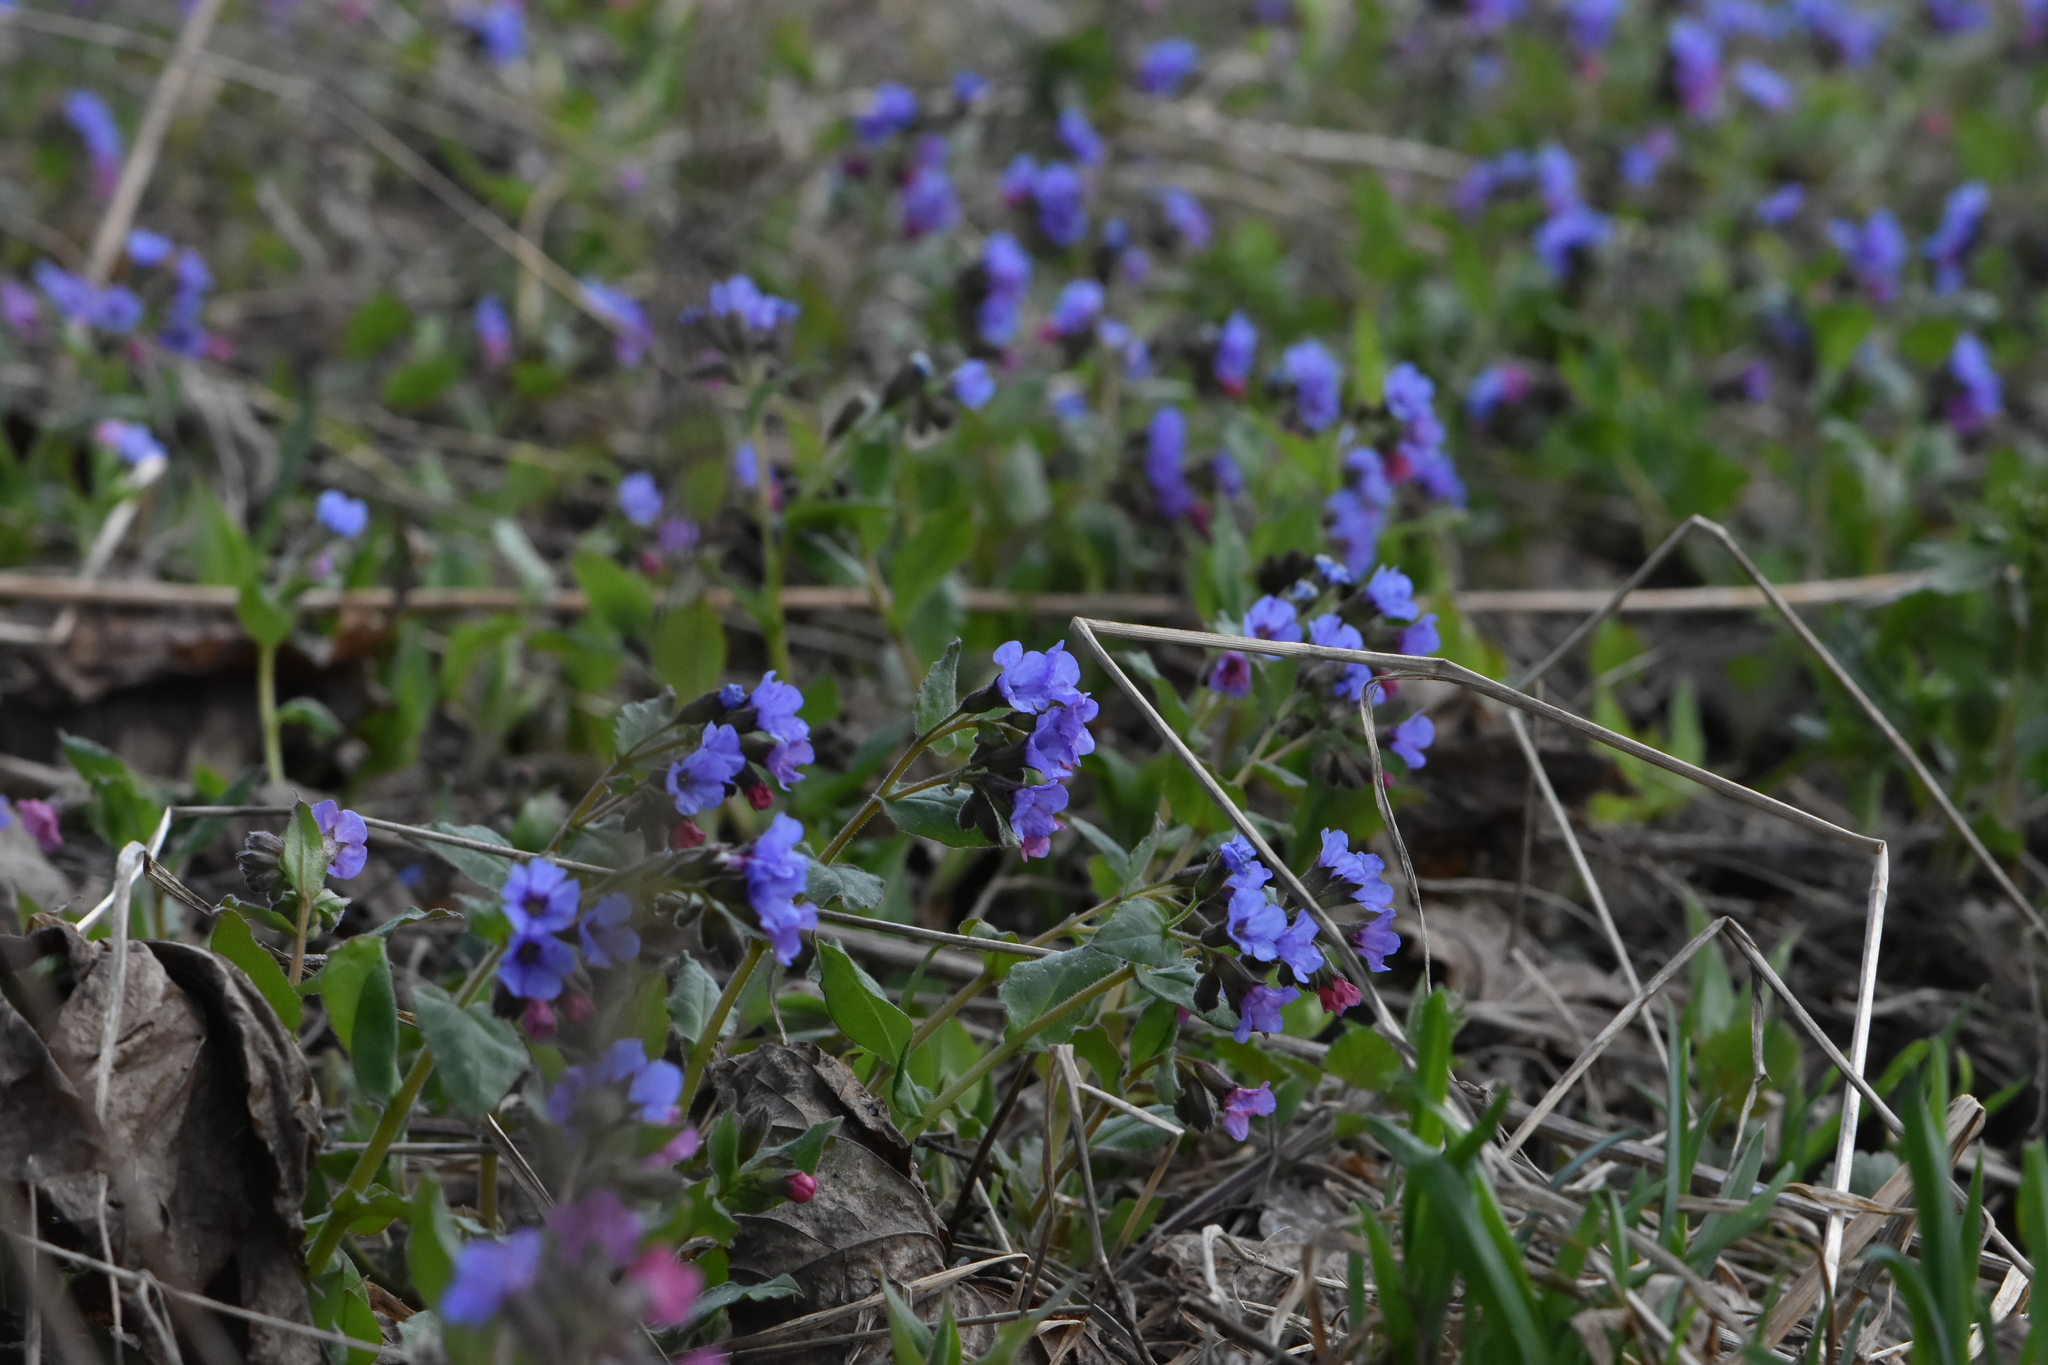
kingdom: Plantae
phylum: Tracheophyta
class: Magnoliopsida
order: Boraginales
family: Boraginaceae
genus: Pulmonaria
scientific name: Pulmonaria obscura
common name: Suffolk lungwort
